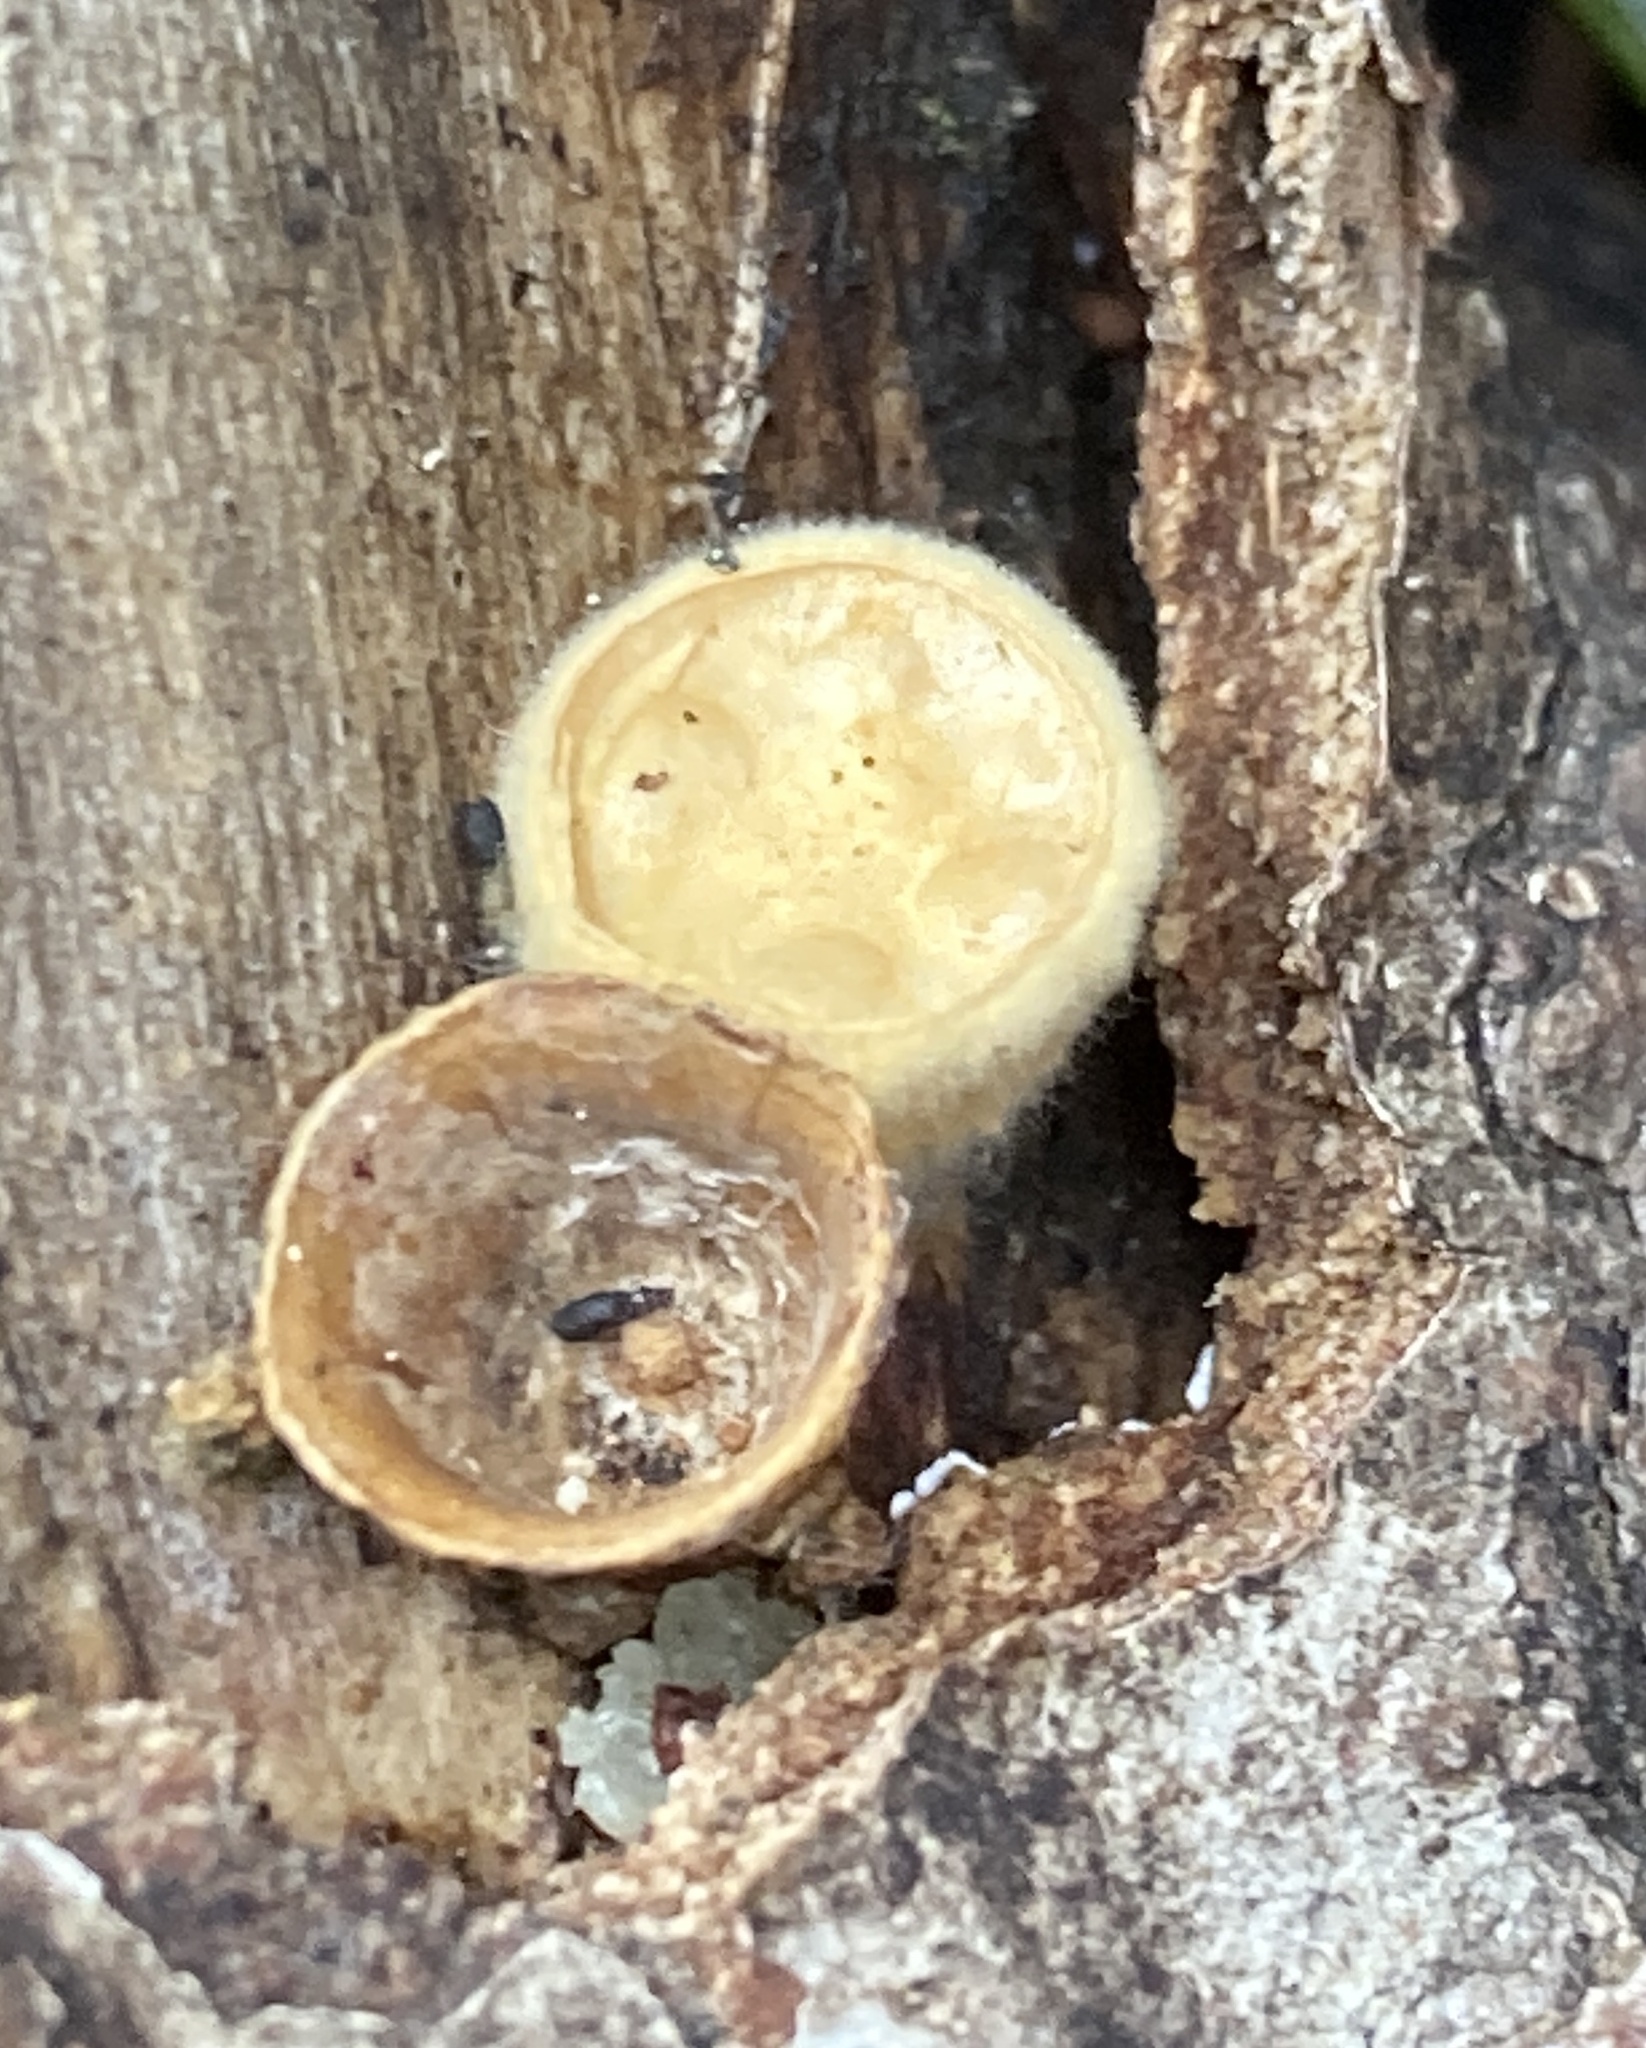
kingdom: Fungi
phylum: Basidiomycota
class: Agaricomycetes
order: Agaricales
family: Nidulariaceae
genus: Crucibulum
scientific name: Crucibulum laeve
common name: Common bird's nest
